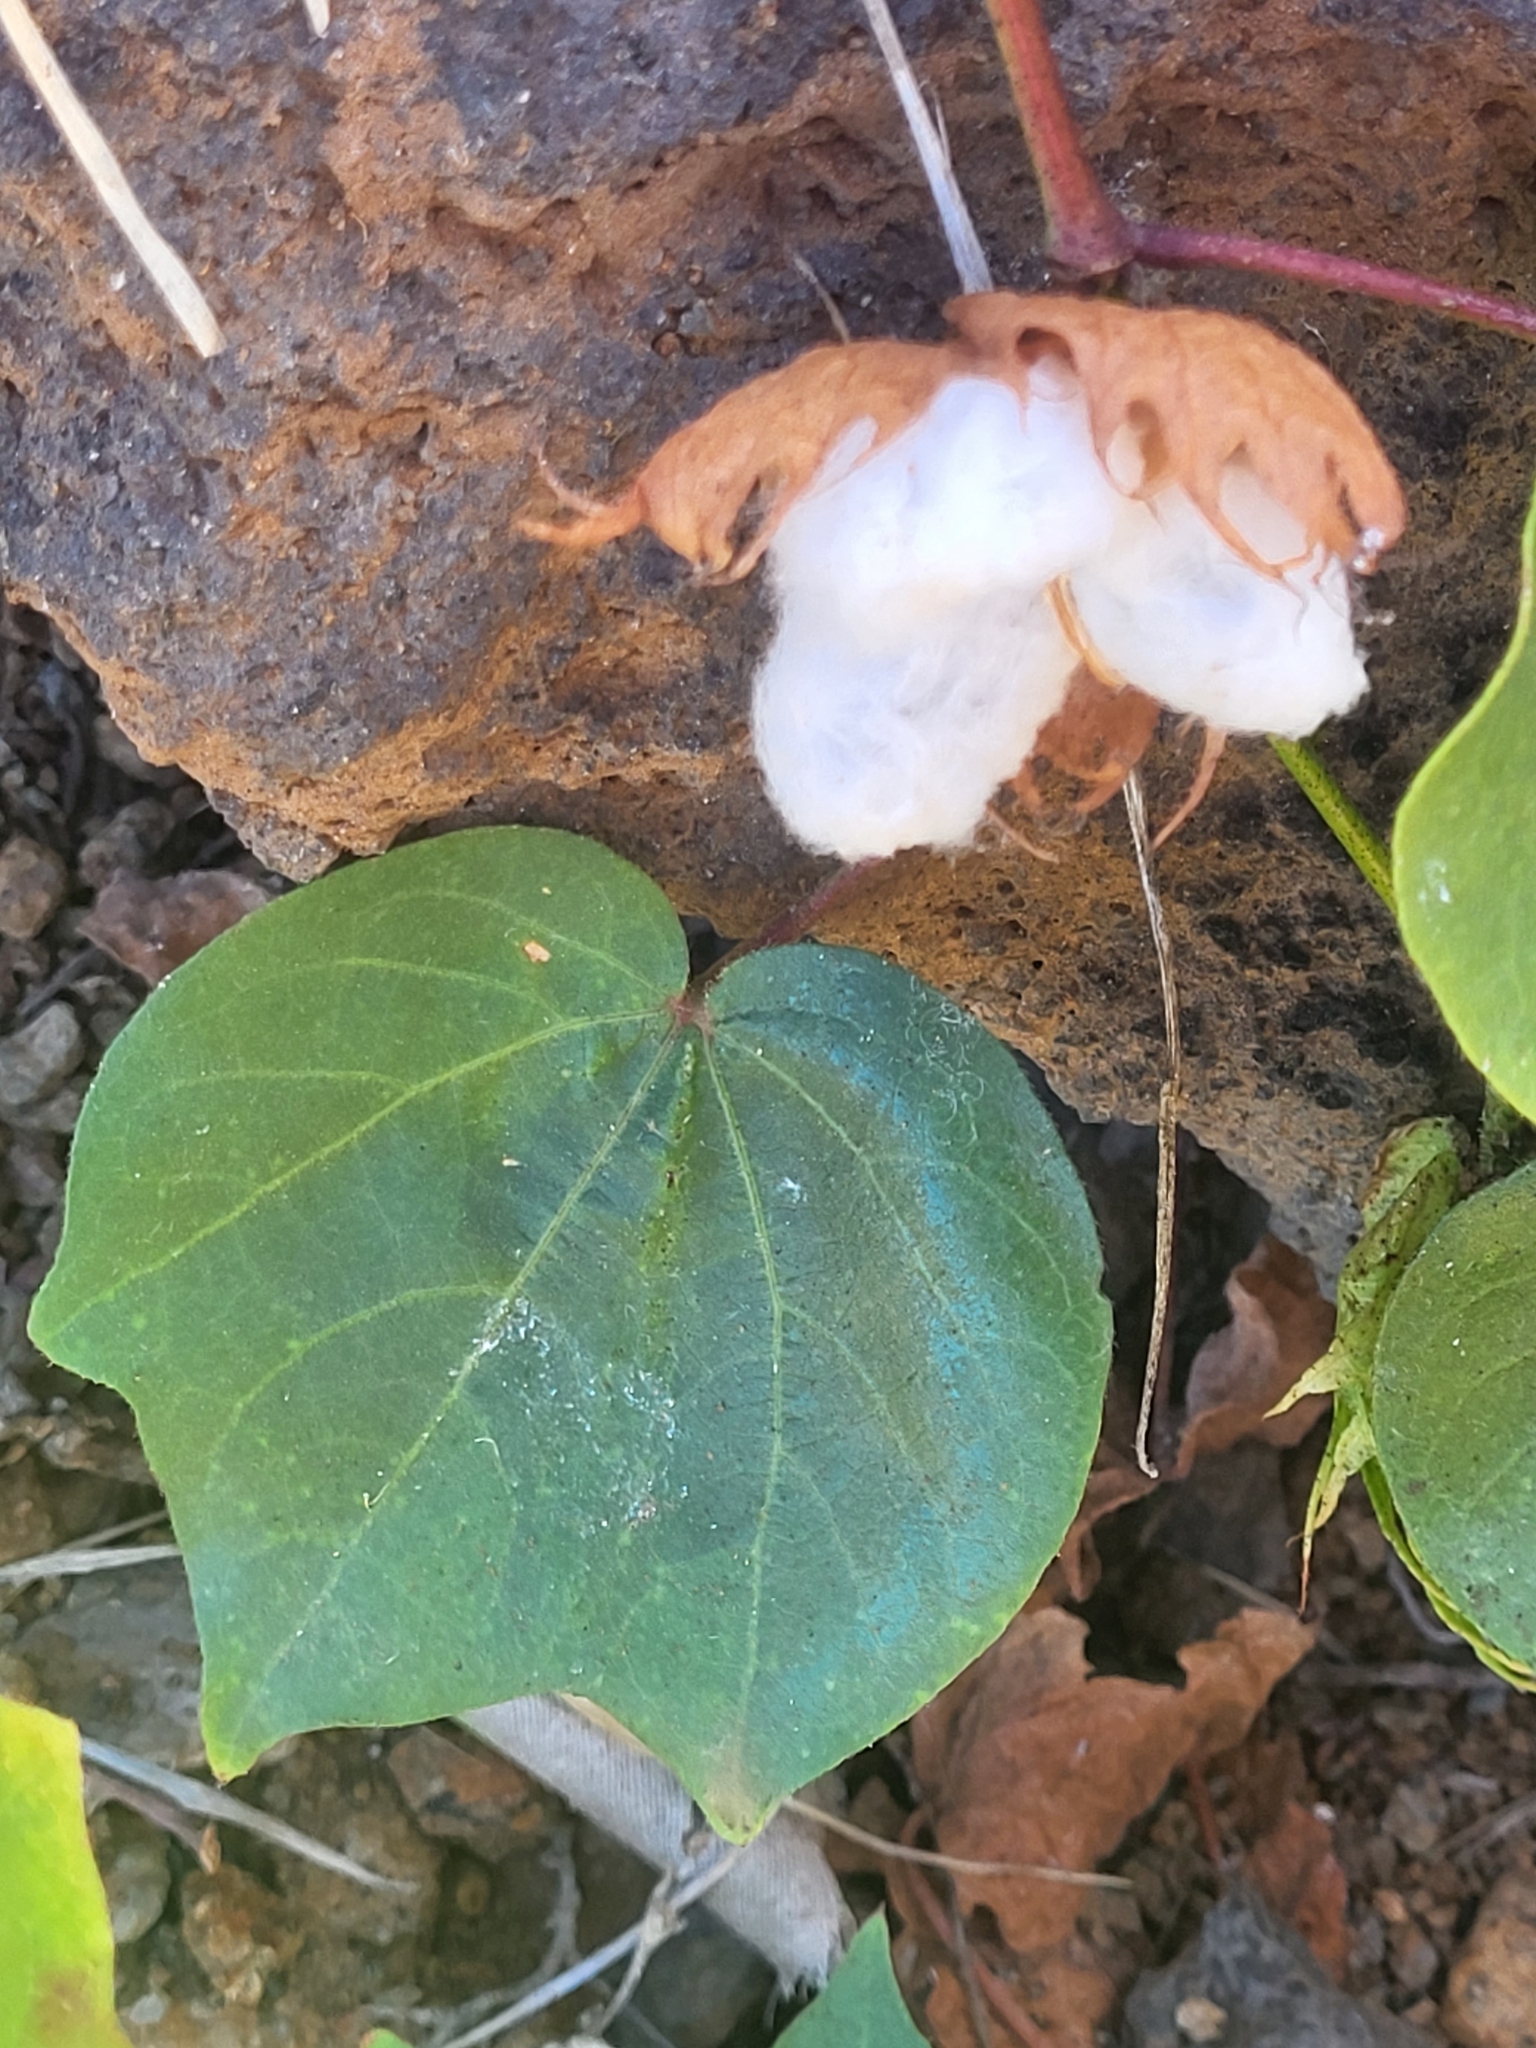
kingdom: Plantae
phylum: Tracheophyta
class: Magnoliopsida
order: Malvales
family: Malvaceae
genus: Gossypium
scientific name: Gossypium hirsutum
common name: Cotton
